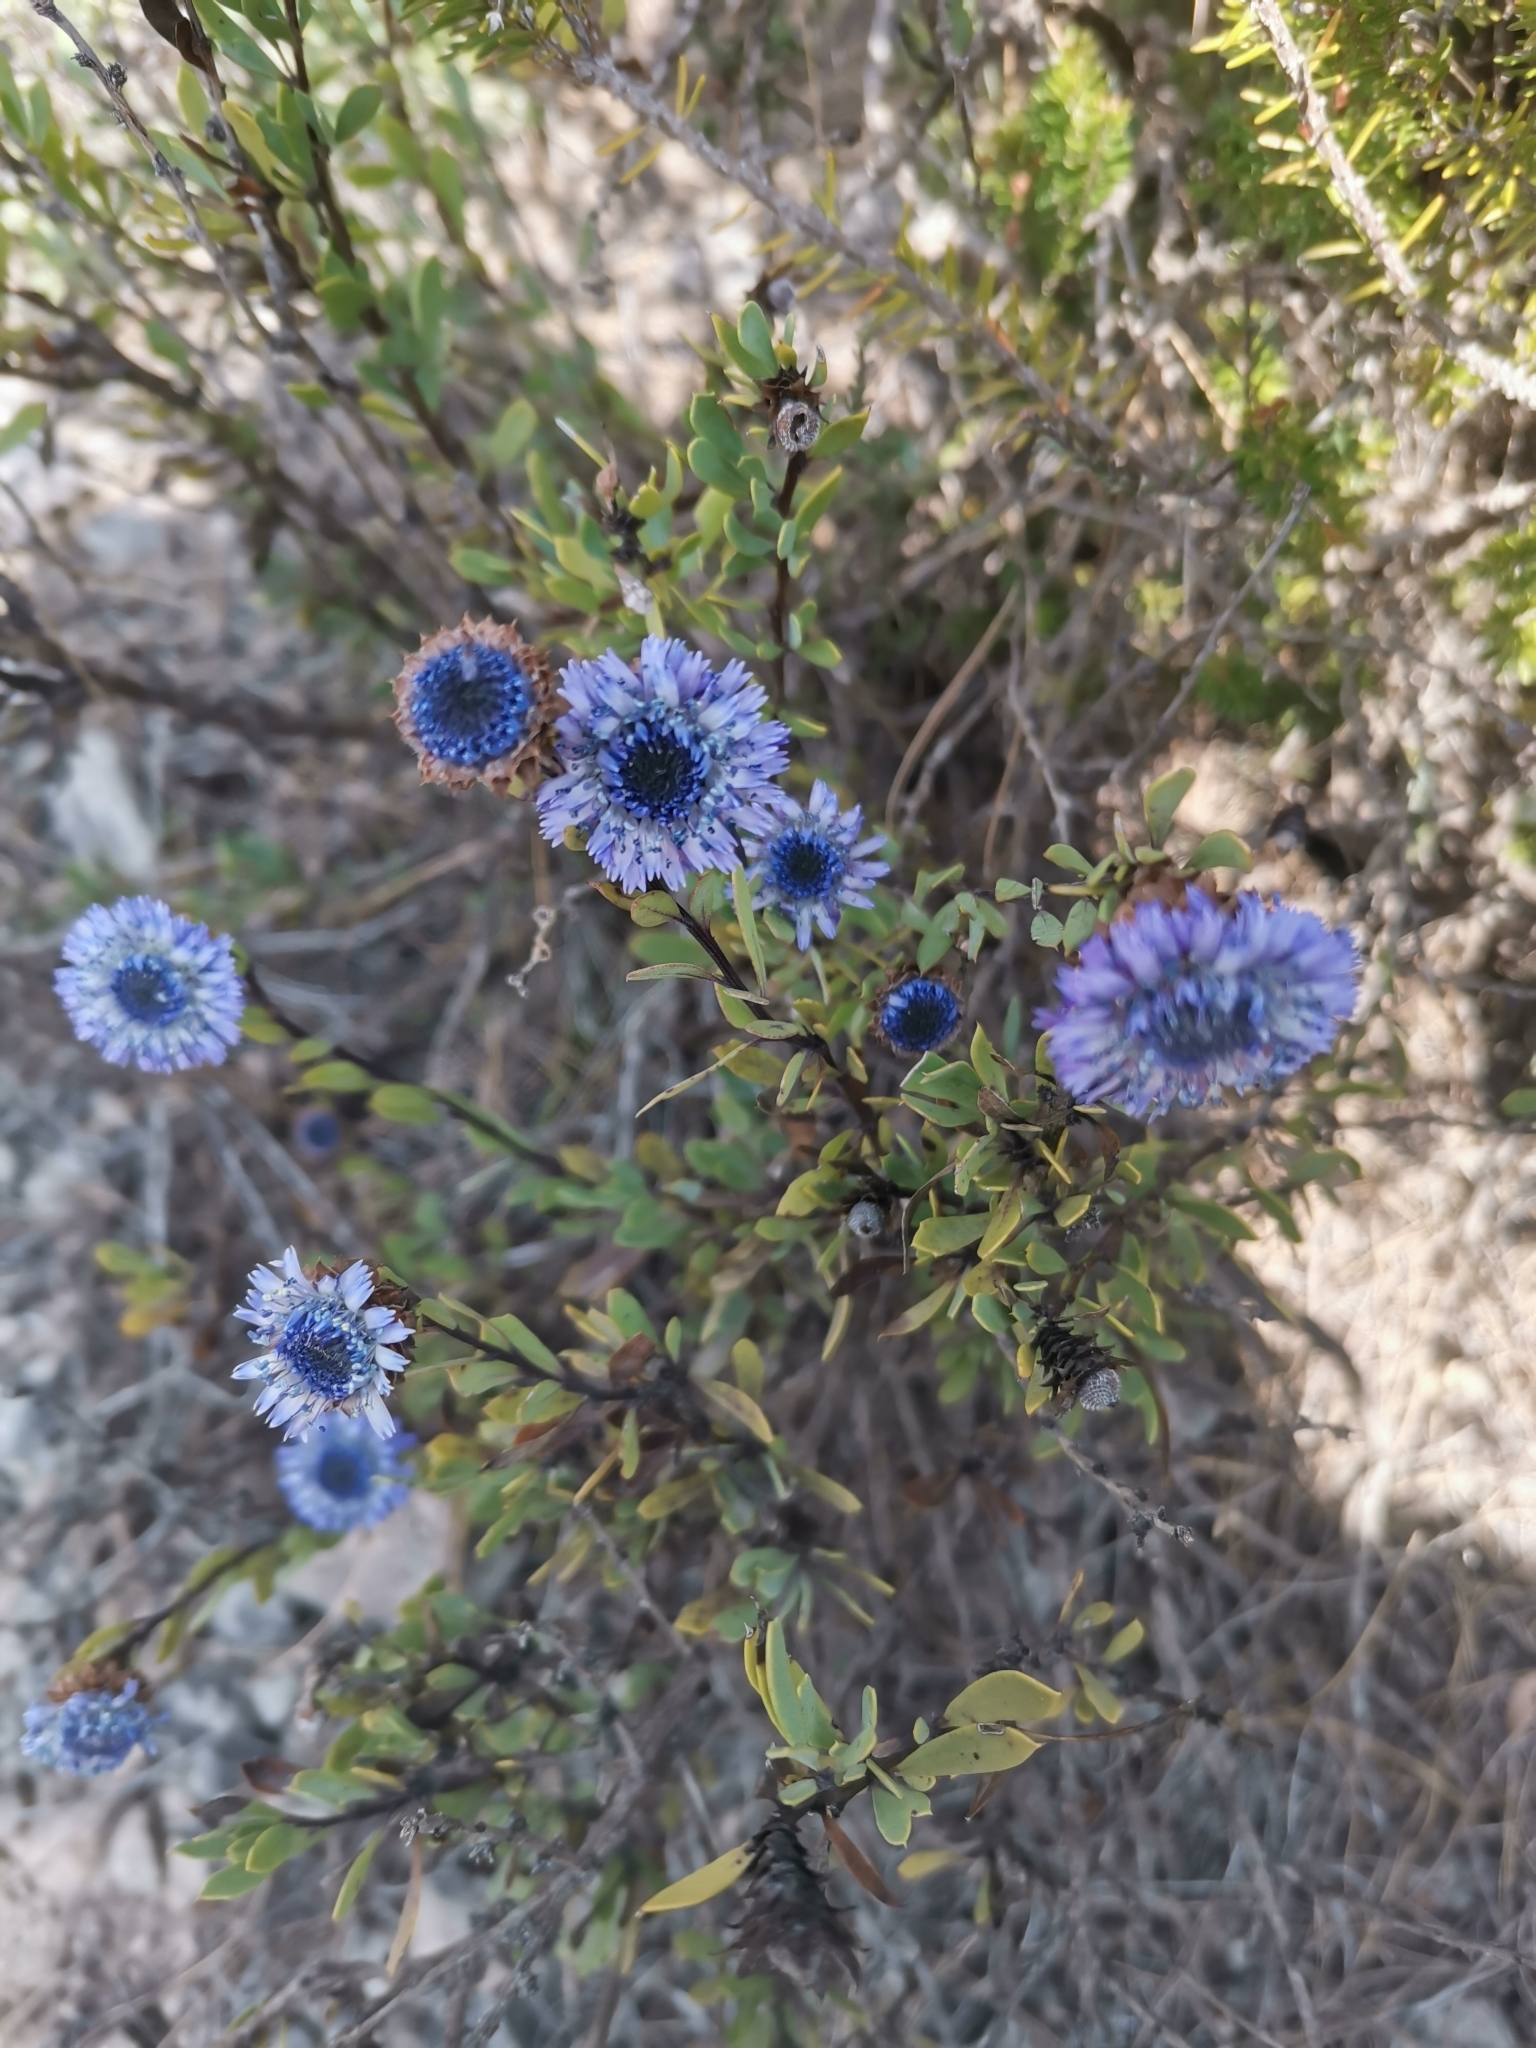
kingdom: Plantae
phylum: Tracheophyta
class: Magnoliopsida
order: Lamiales
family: Plantaginaceae
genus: Globularia
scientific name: Globularia alypum
